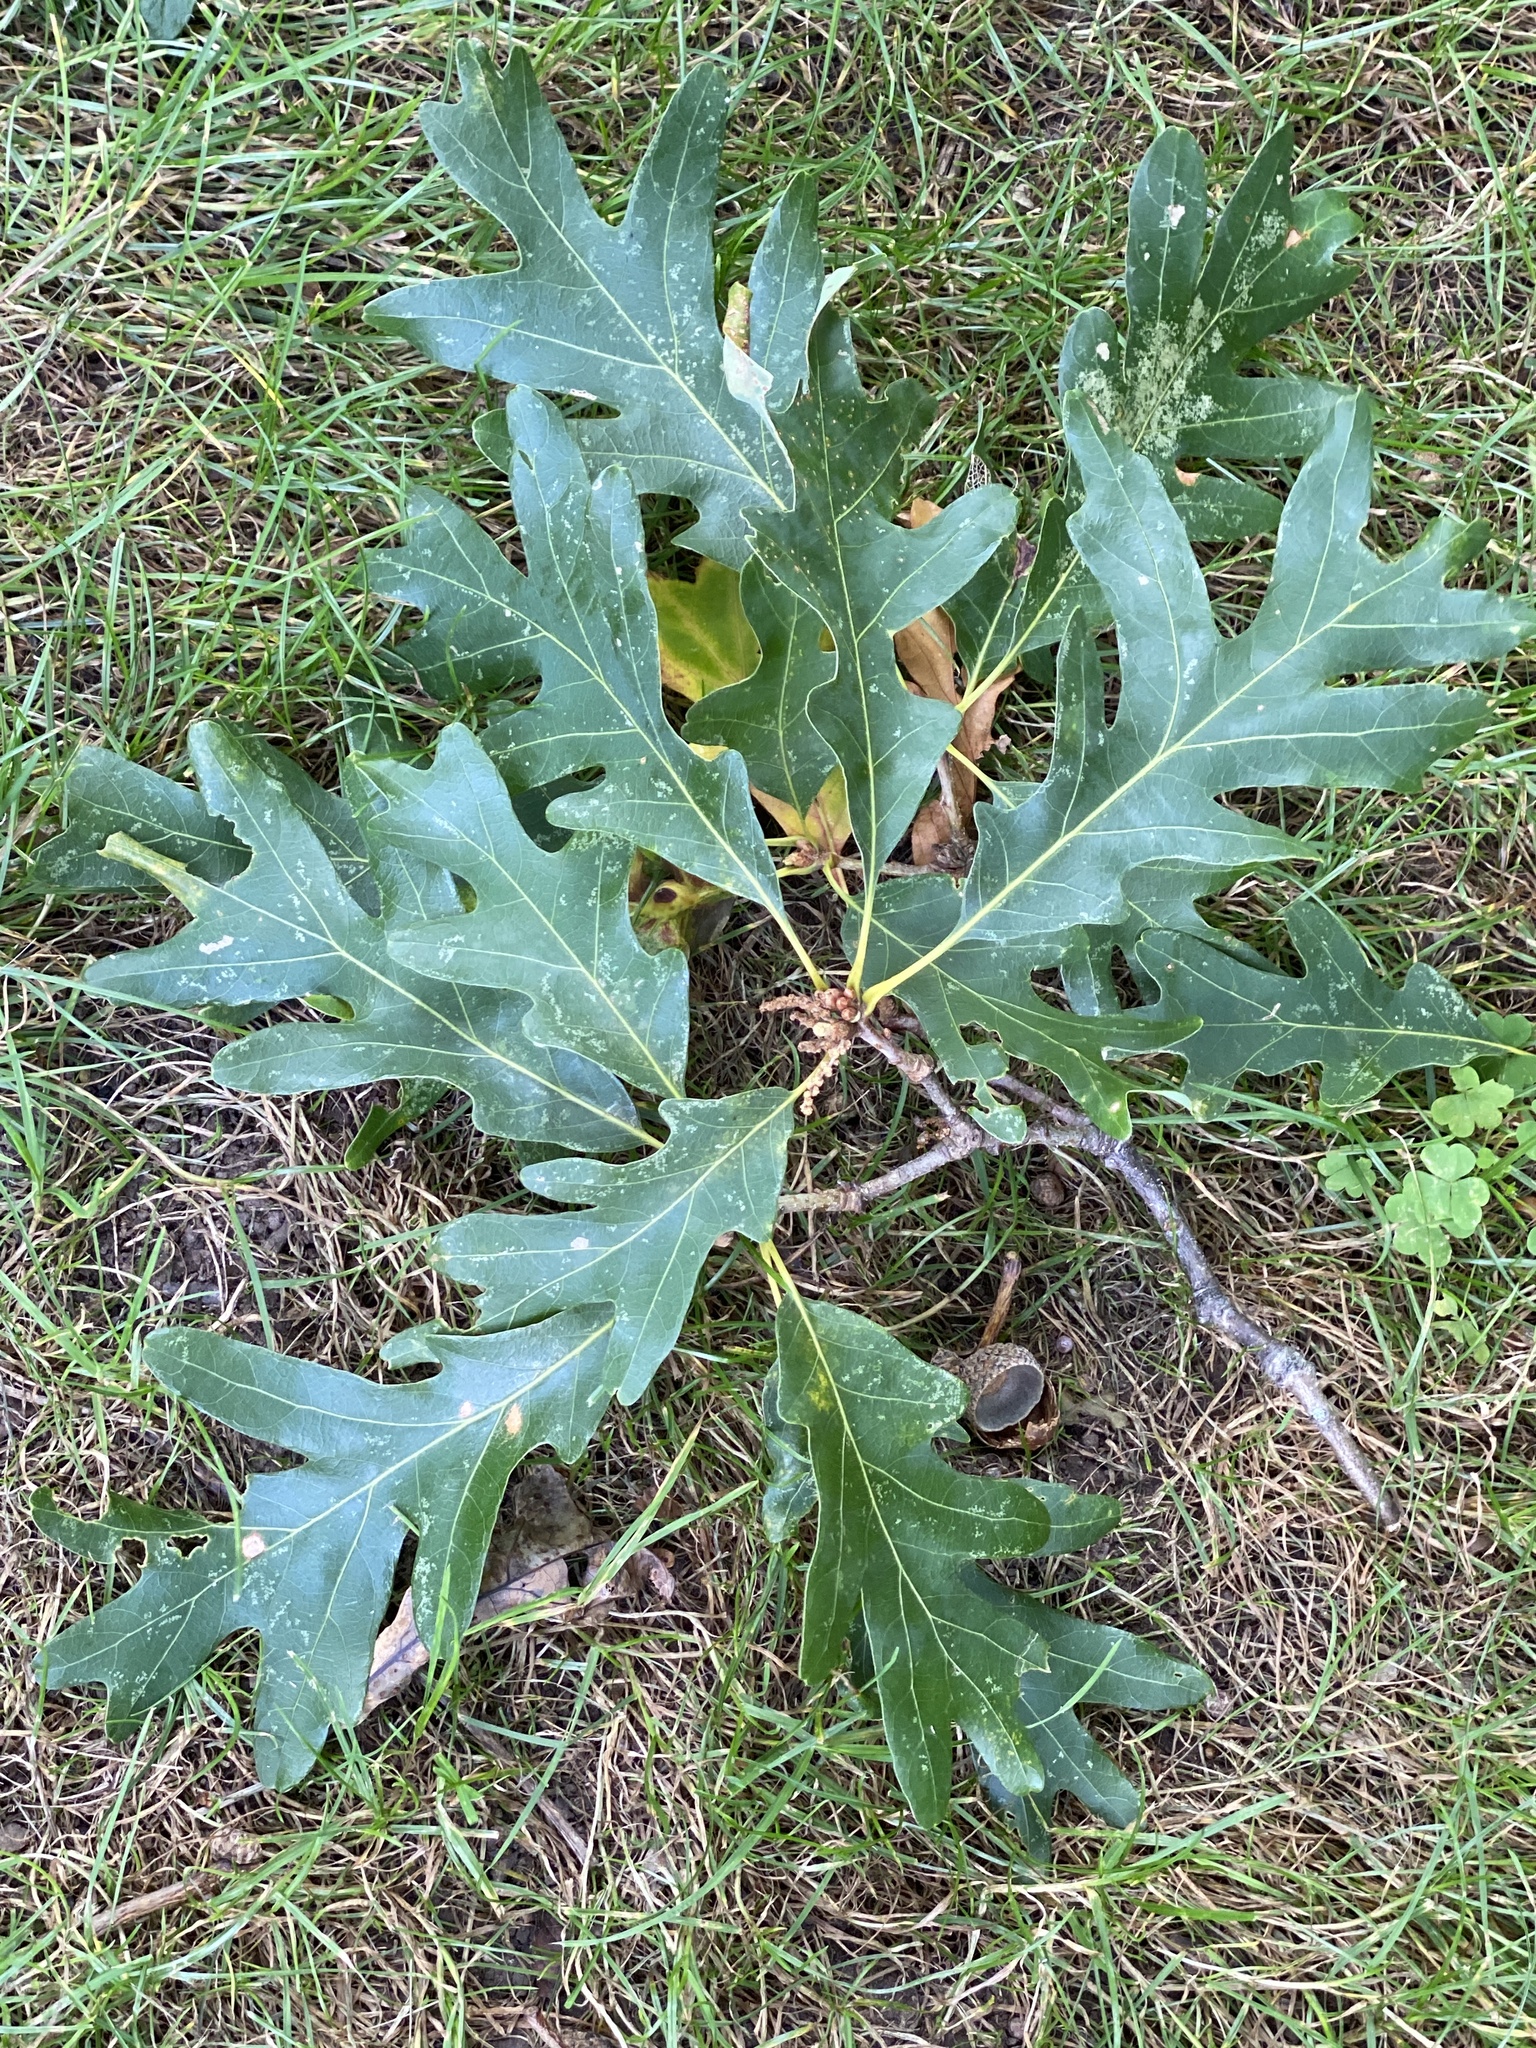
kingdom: Plantae
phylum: Tracheophyta
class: Magnoliopsida
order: Fagales
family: Fagaceae
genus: Quercus
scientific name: Quercus alba
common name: White oak
